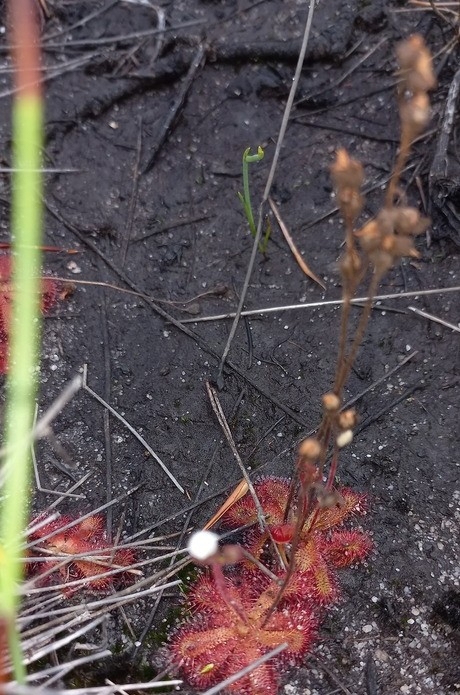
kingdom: Plantae
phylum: Tracheophyta
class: Magnoliopsida
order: Caryophyllales
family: Droseraceae
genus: Drosera
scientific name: Drosera trinervia
